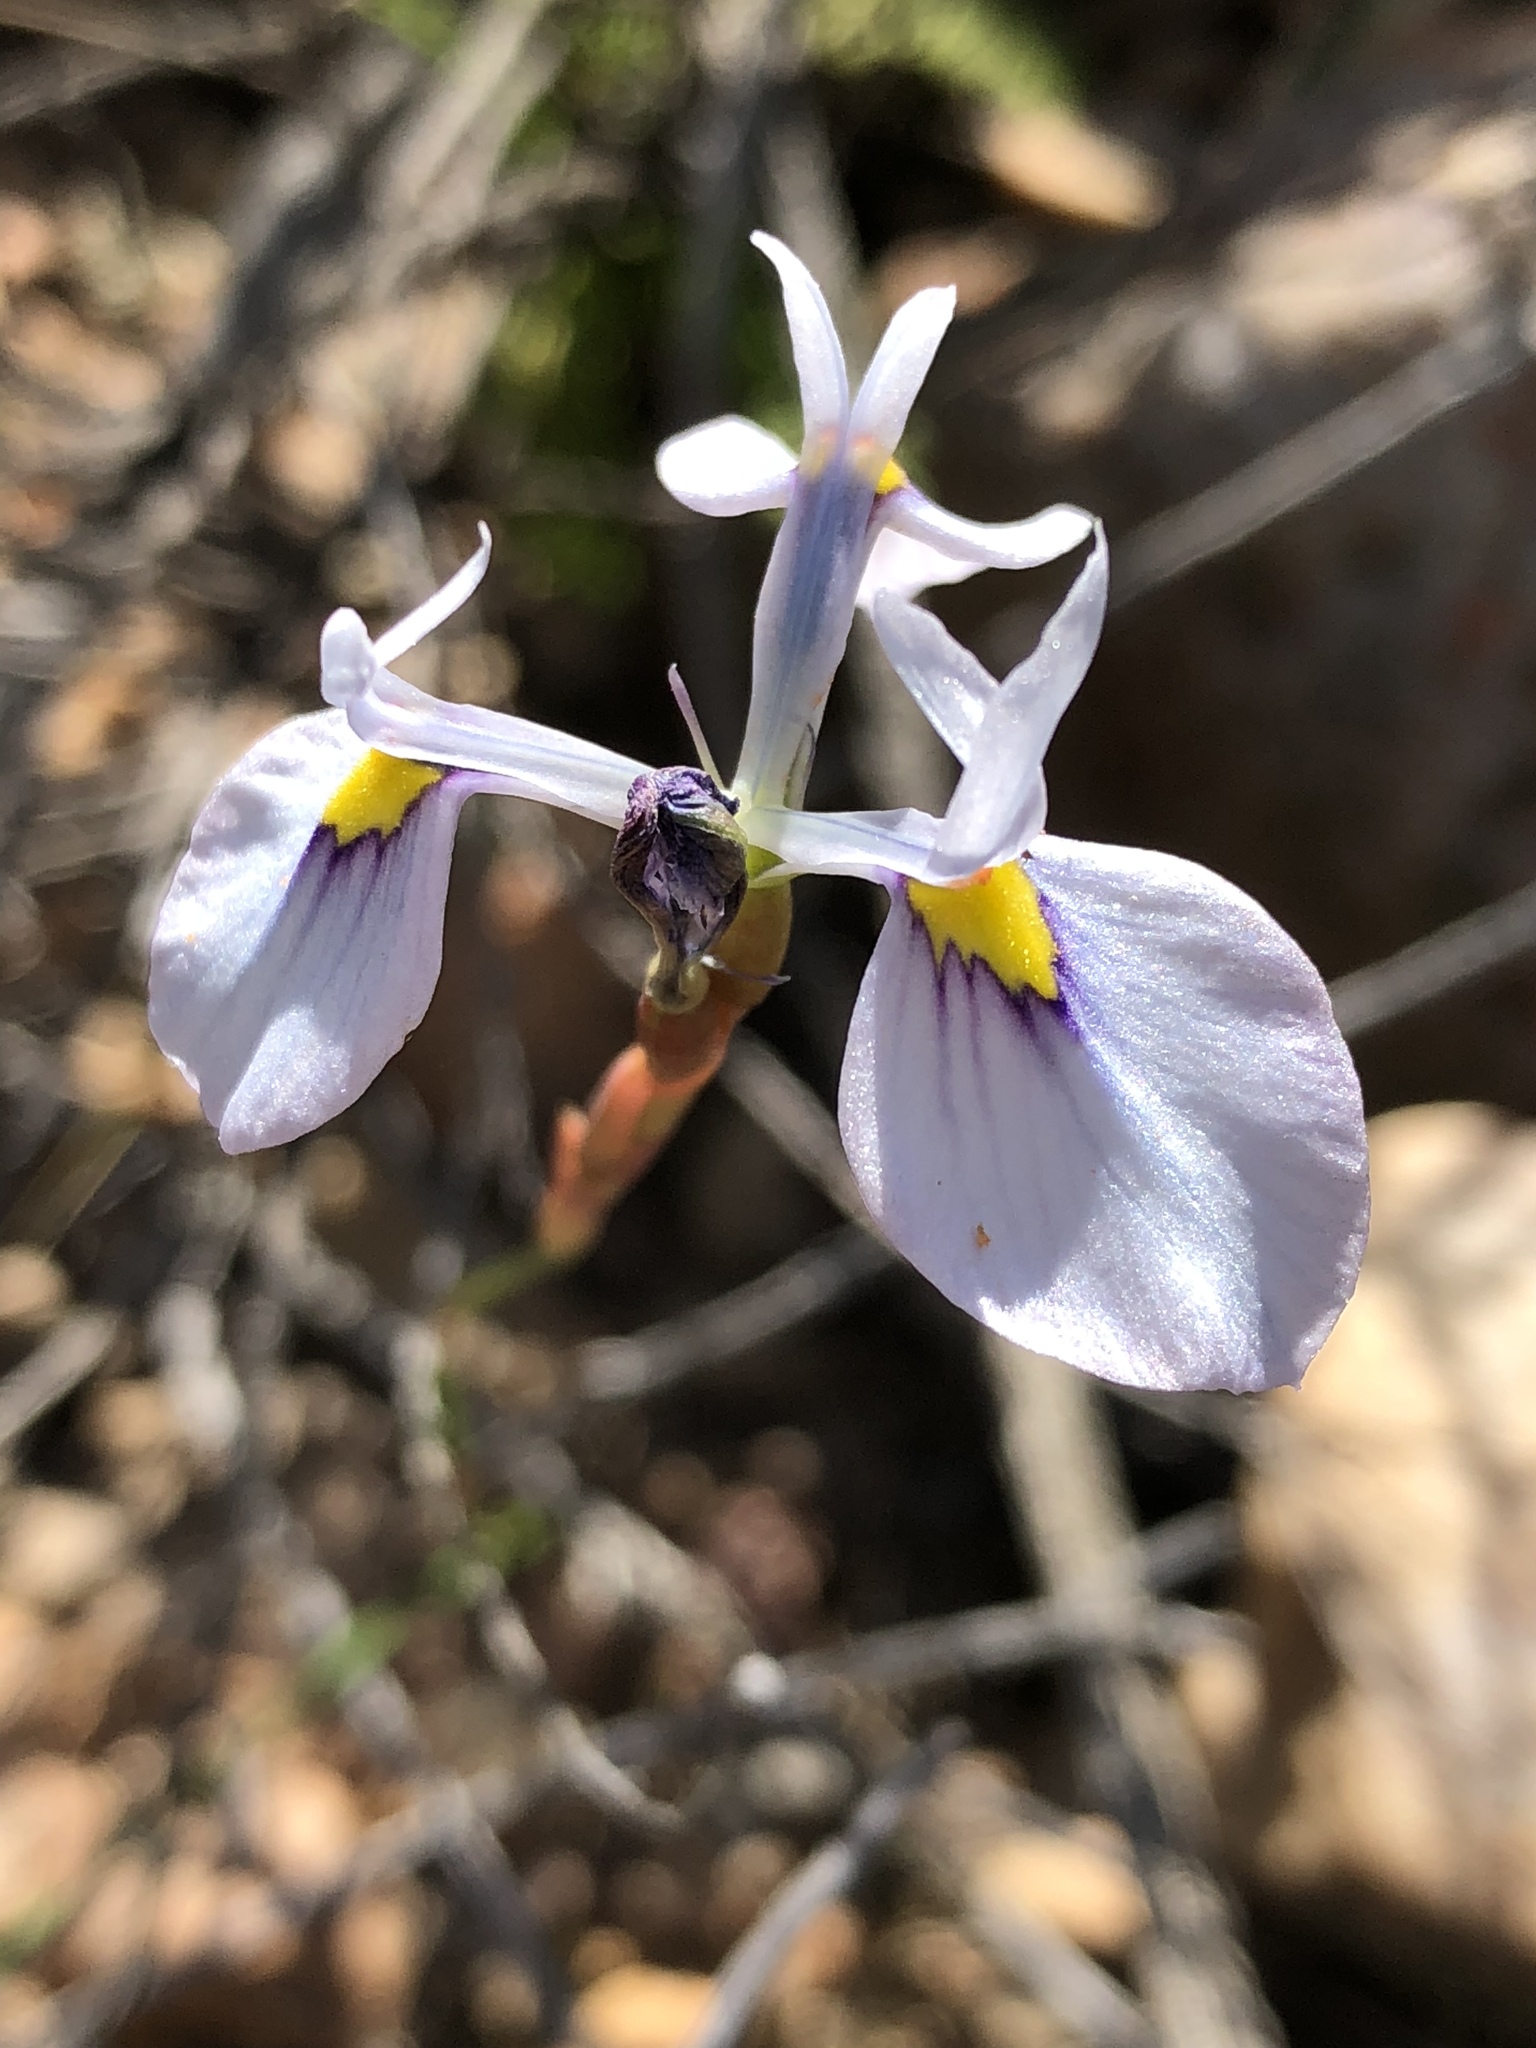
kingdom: Plantae
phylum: Tracheophyta
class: Liliopsida
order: Asparagales
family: Iridaceae
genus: Moraea
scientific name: Moraea tripetala
